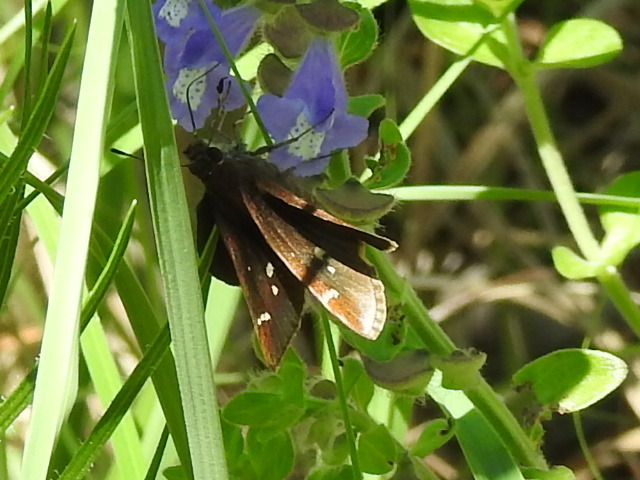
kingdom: Animalia
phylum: Arthropoda
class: Insecta
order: Lepidoptera
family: Hesperiidae
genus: Lerema
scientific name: Lerema accius
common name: Clouded skipper
